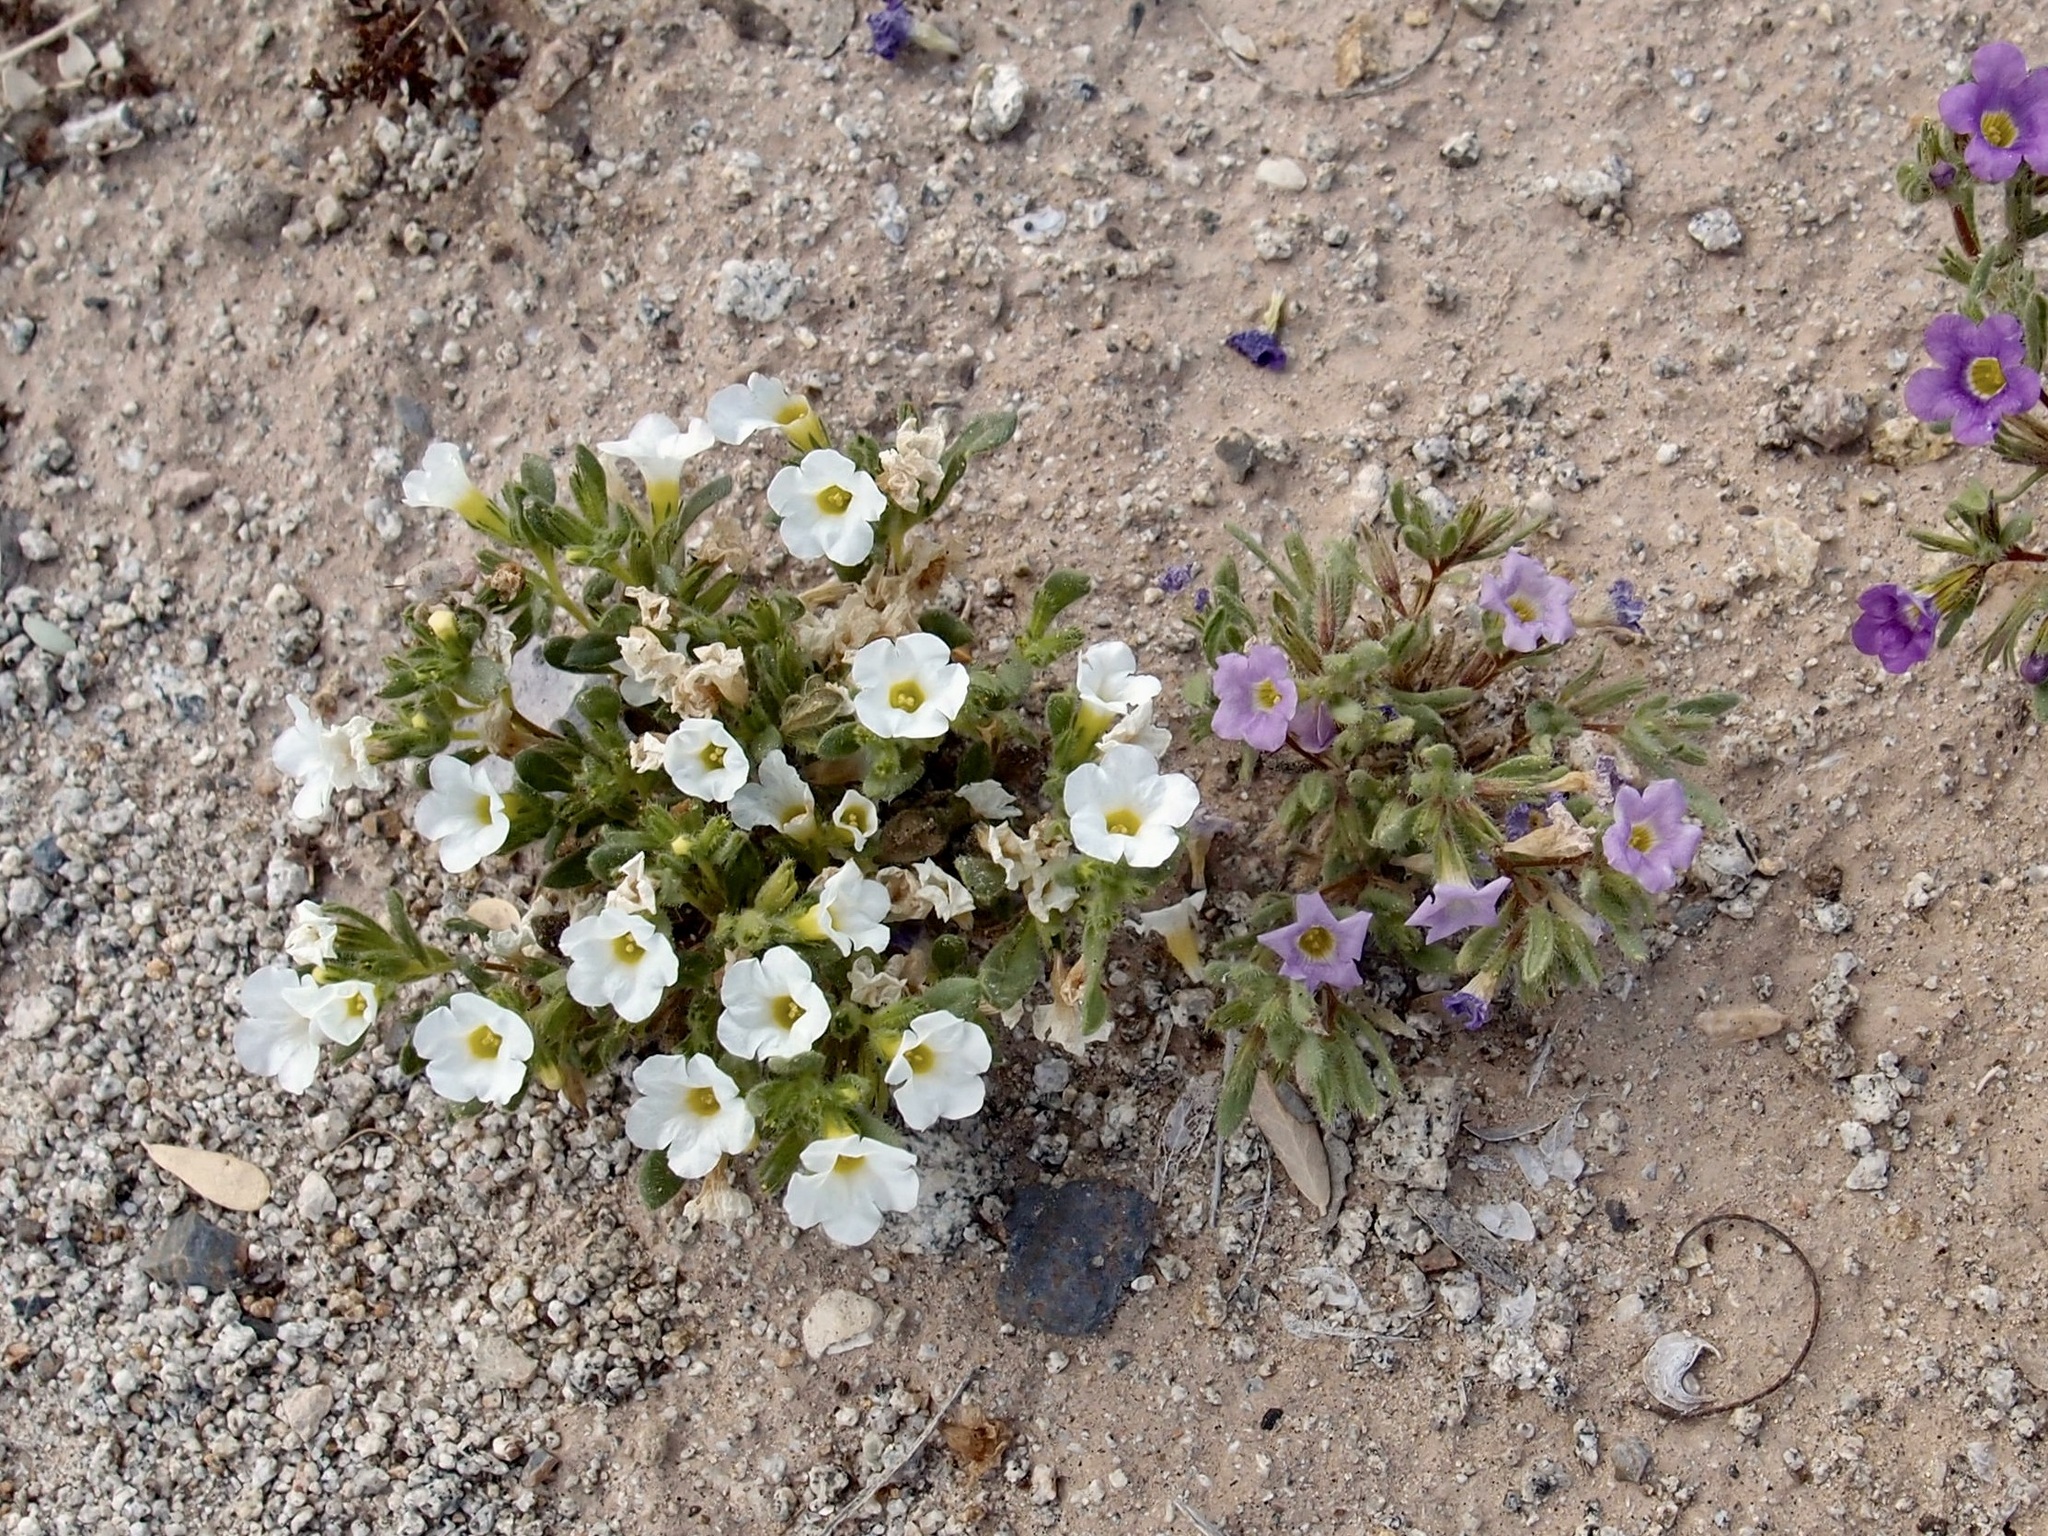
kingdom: Plantae
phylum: Tracheophyta
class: Magnoliopsida
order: Boraginales
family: Namaceae
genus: Nama
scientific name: Nama hispida
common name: Bristly nama
